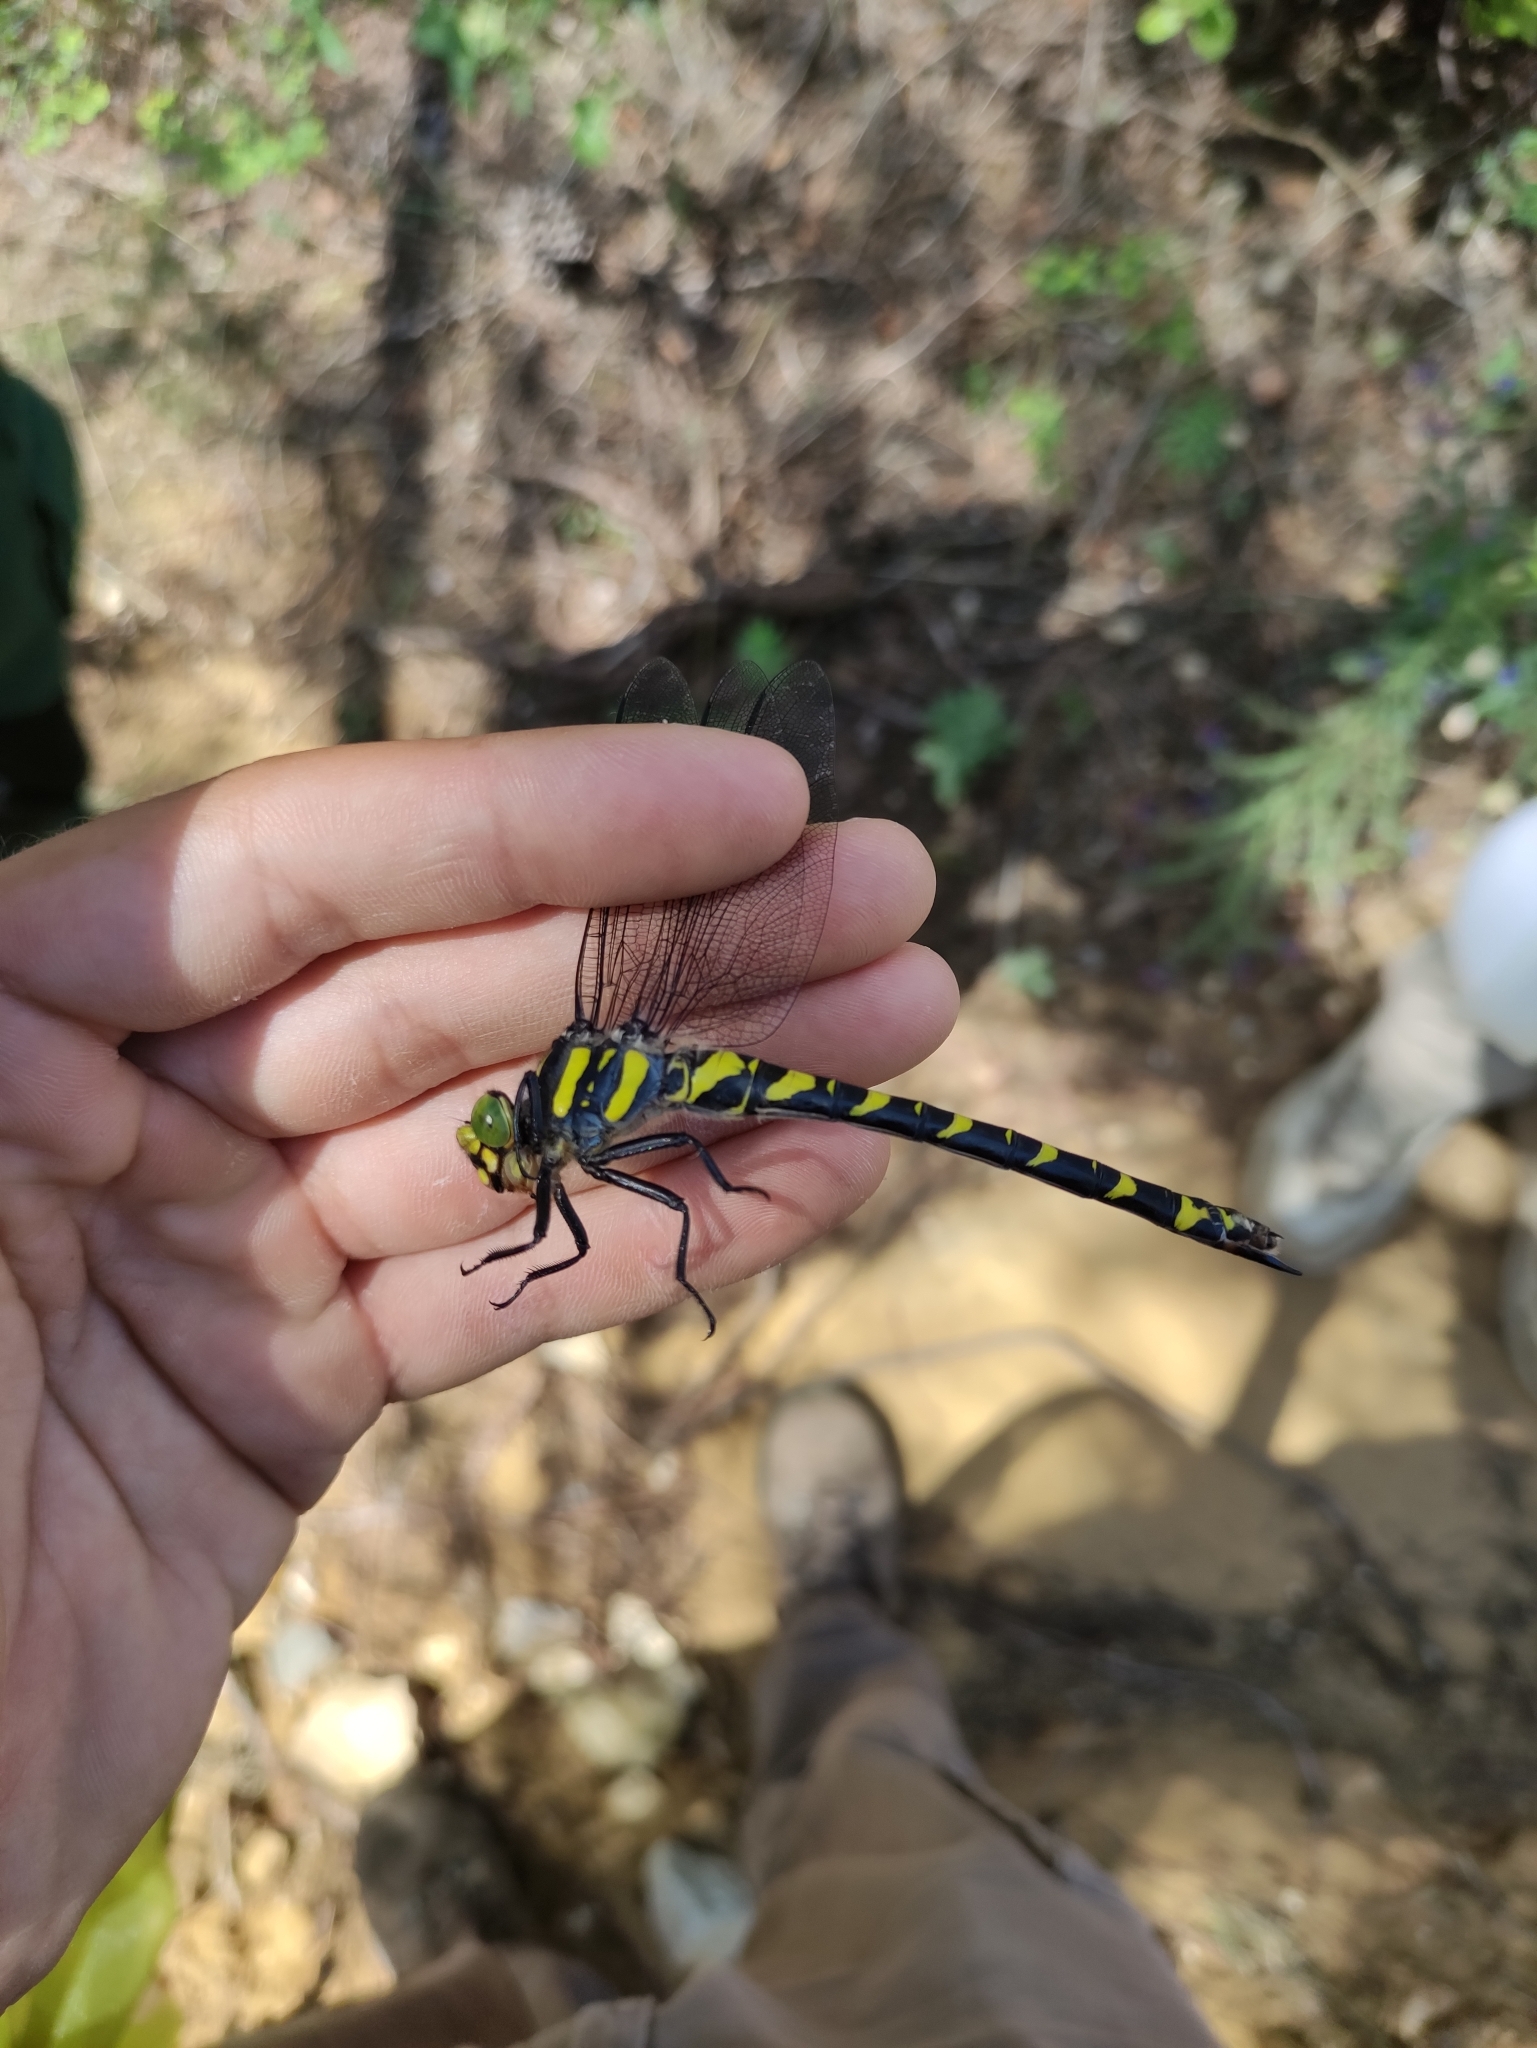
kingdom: Animalia
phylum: Arthropoda
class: Insecta
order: Odonata
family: Cordulegastridae
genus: Cordulegaster
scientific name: Cordulegaster boltonii
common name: Golden-ringed dragonfly
